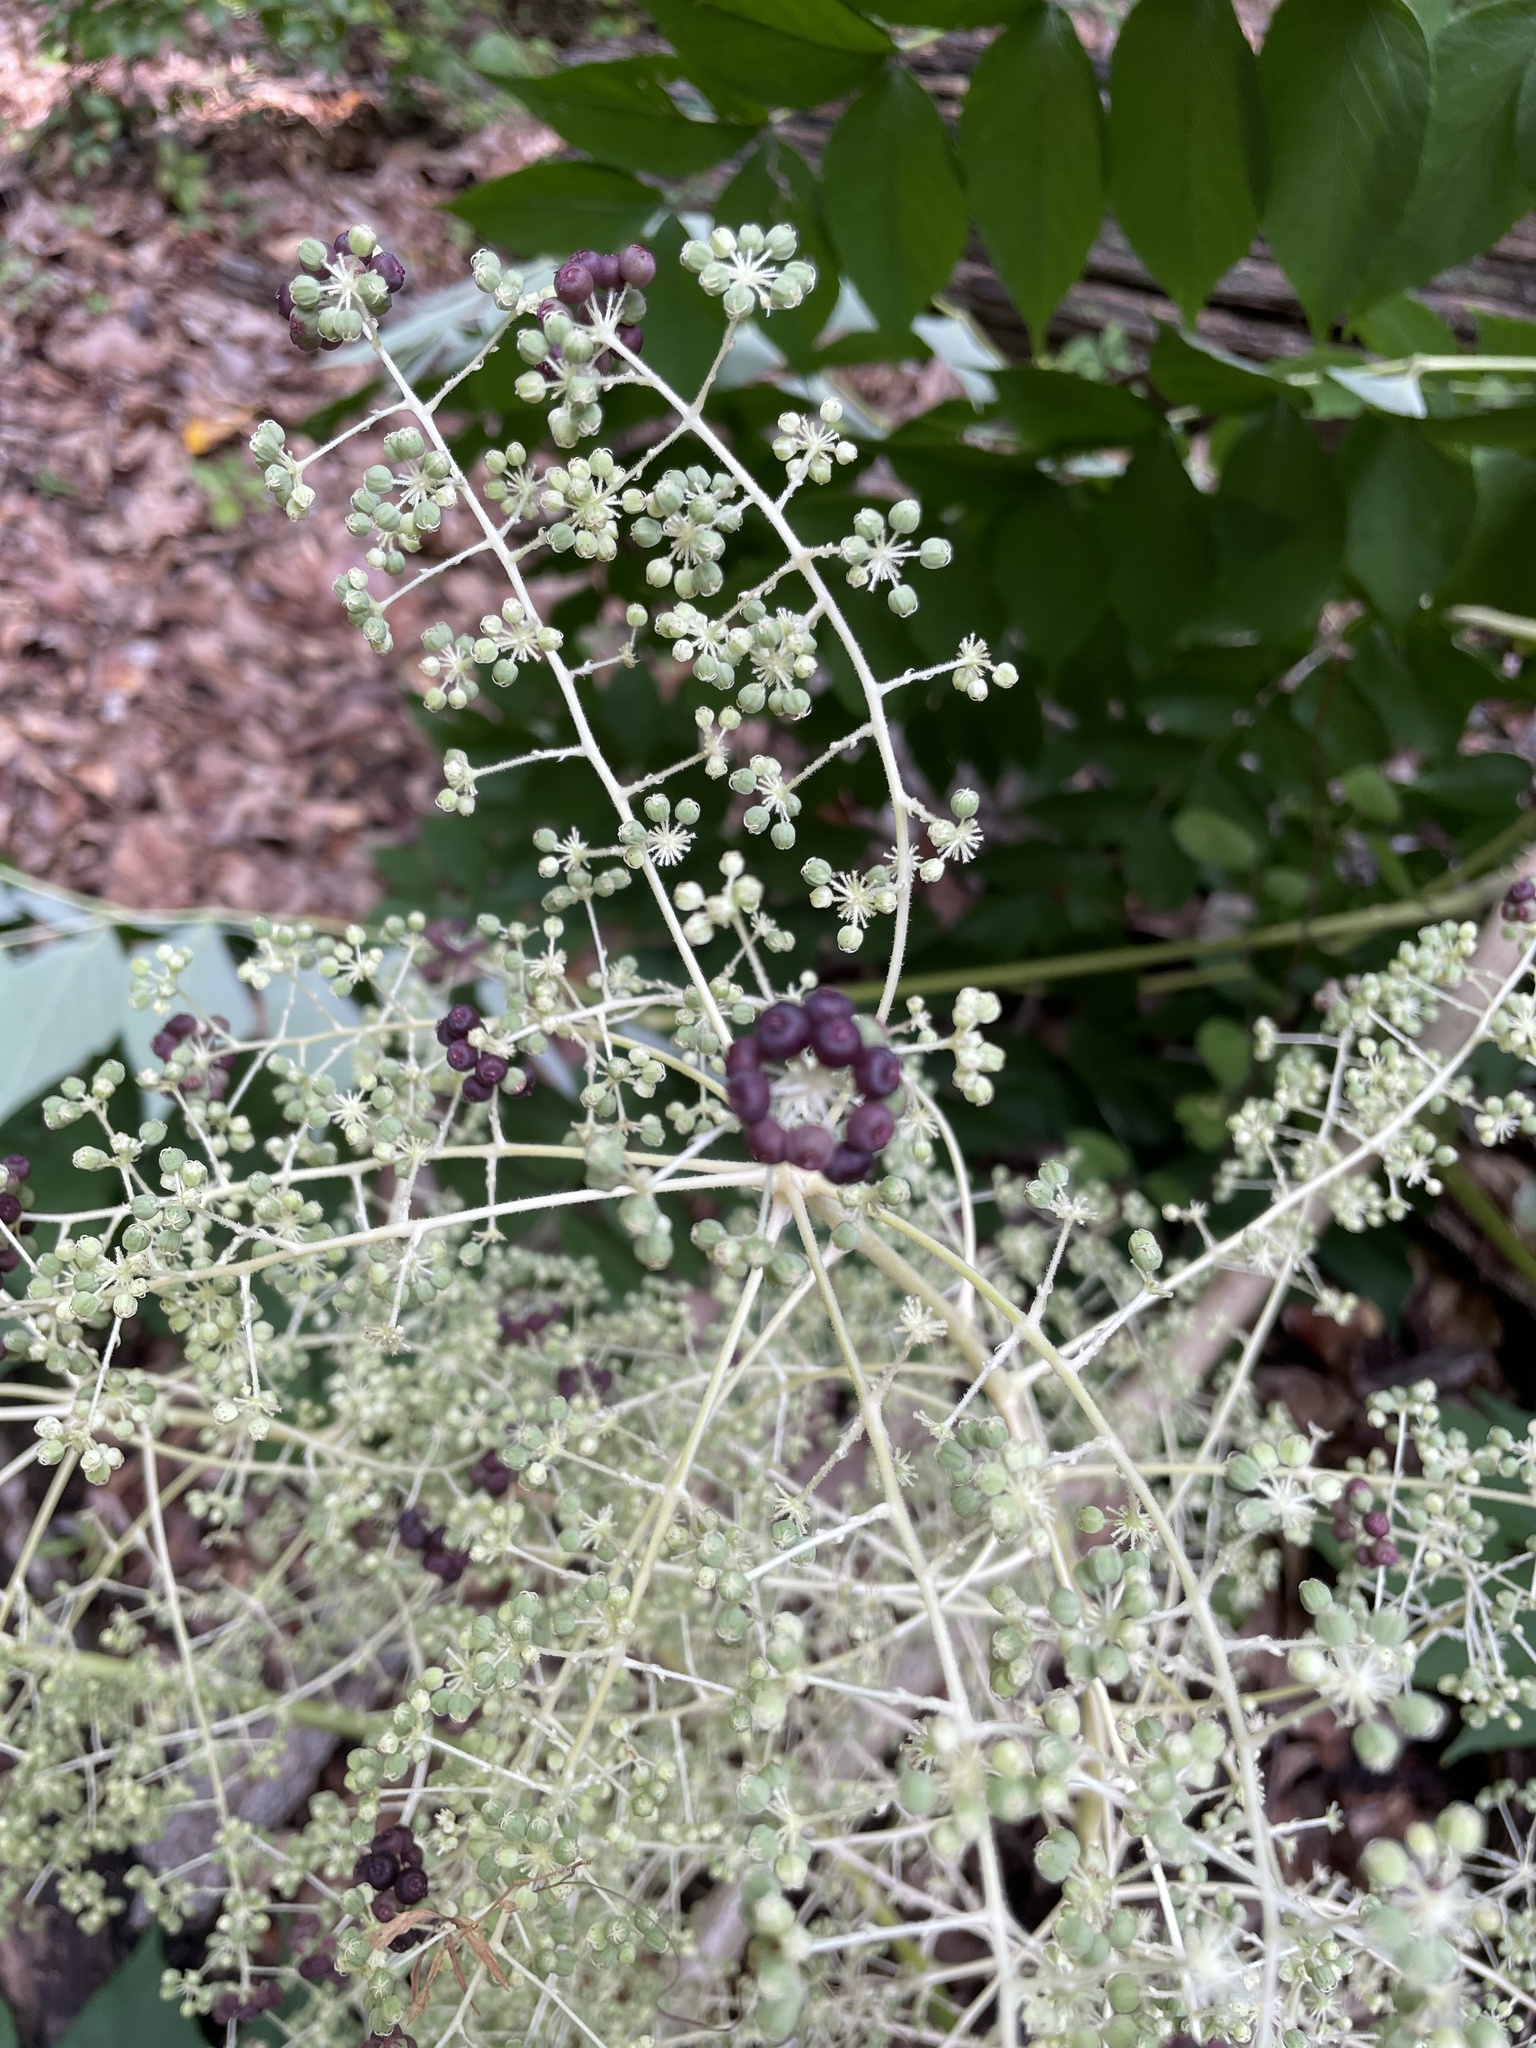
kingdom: Plantae
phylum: Tracheophyta
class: Magnoliopsida
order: Apiales
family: Araliaceae
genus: Aralia
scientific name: Aralia elata
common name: Japanese angelica-tree
